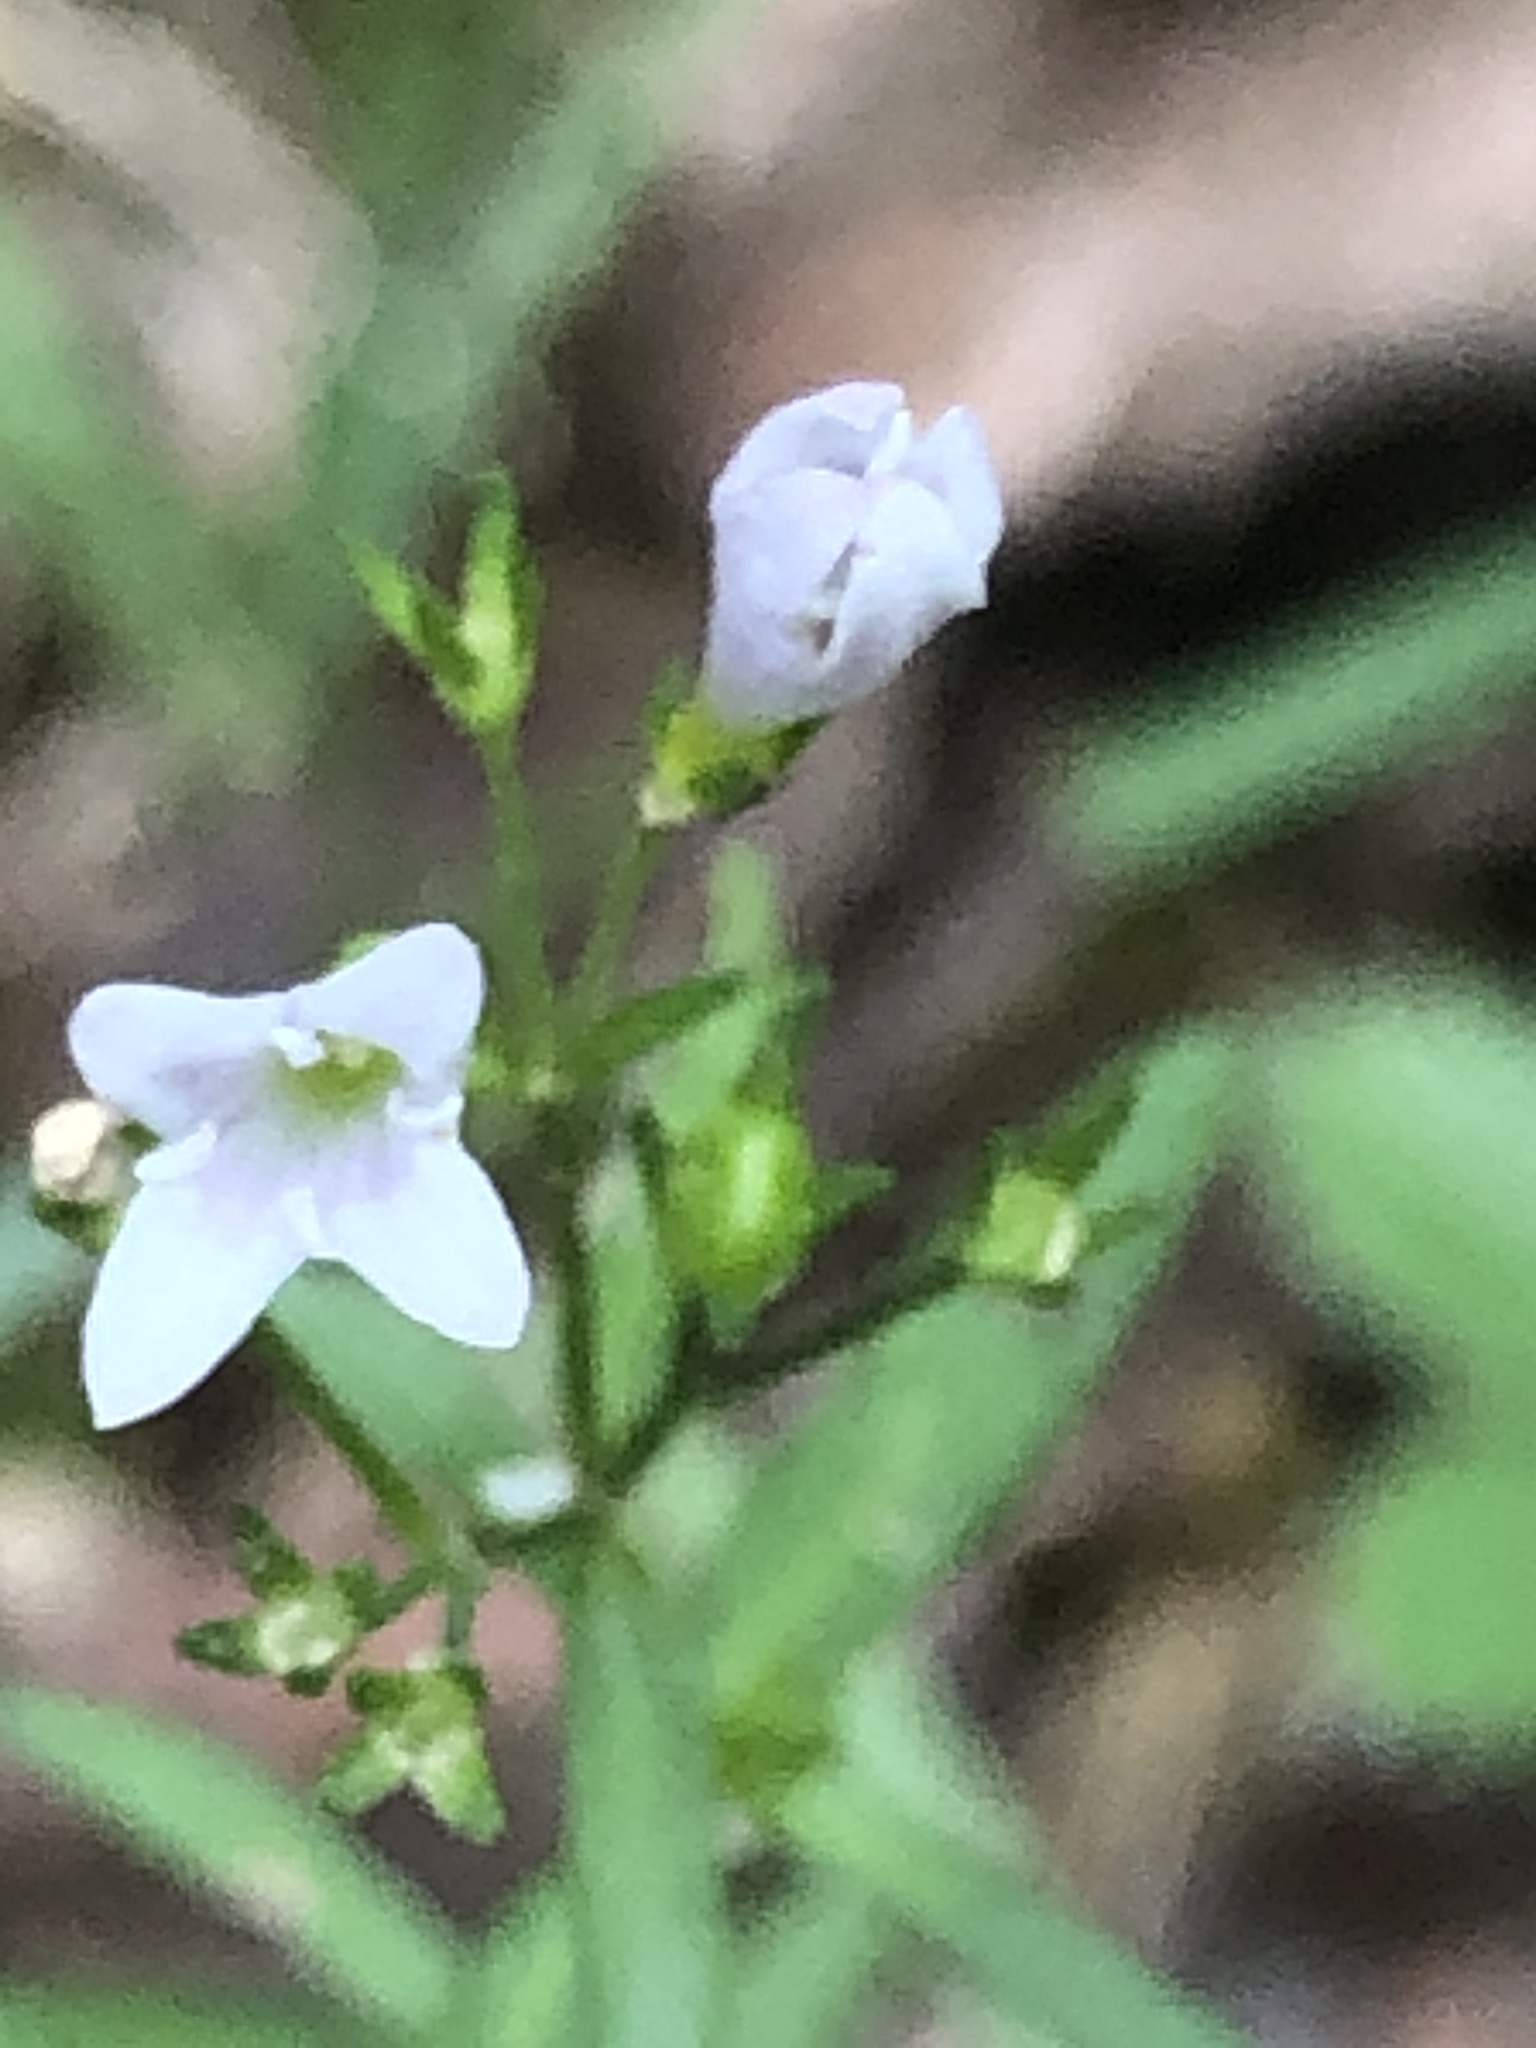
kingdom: Plantae
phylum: Tracheophyta
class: Magnoliopsida
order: Gentianales
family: Rubiaceae
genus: Houstonia
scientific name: Houstonia longifolia
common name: Long-leaved bluets
